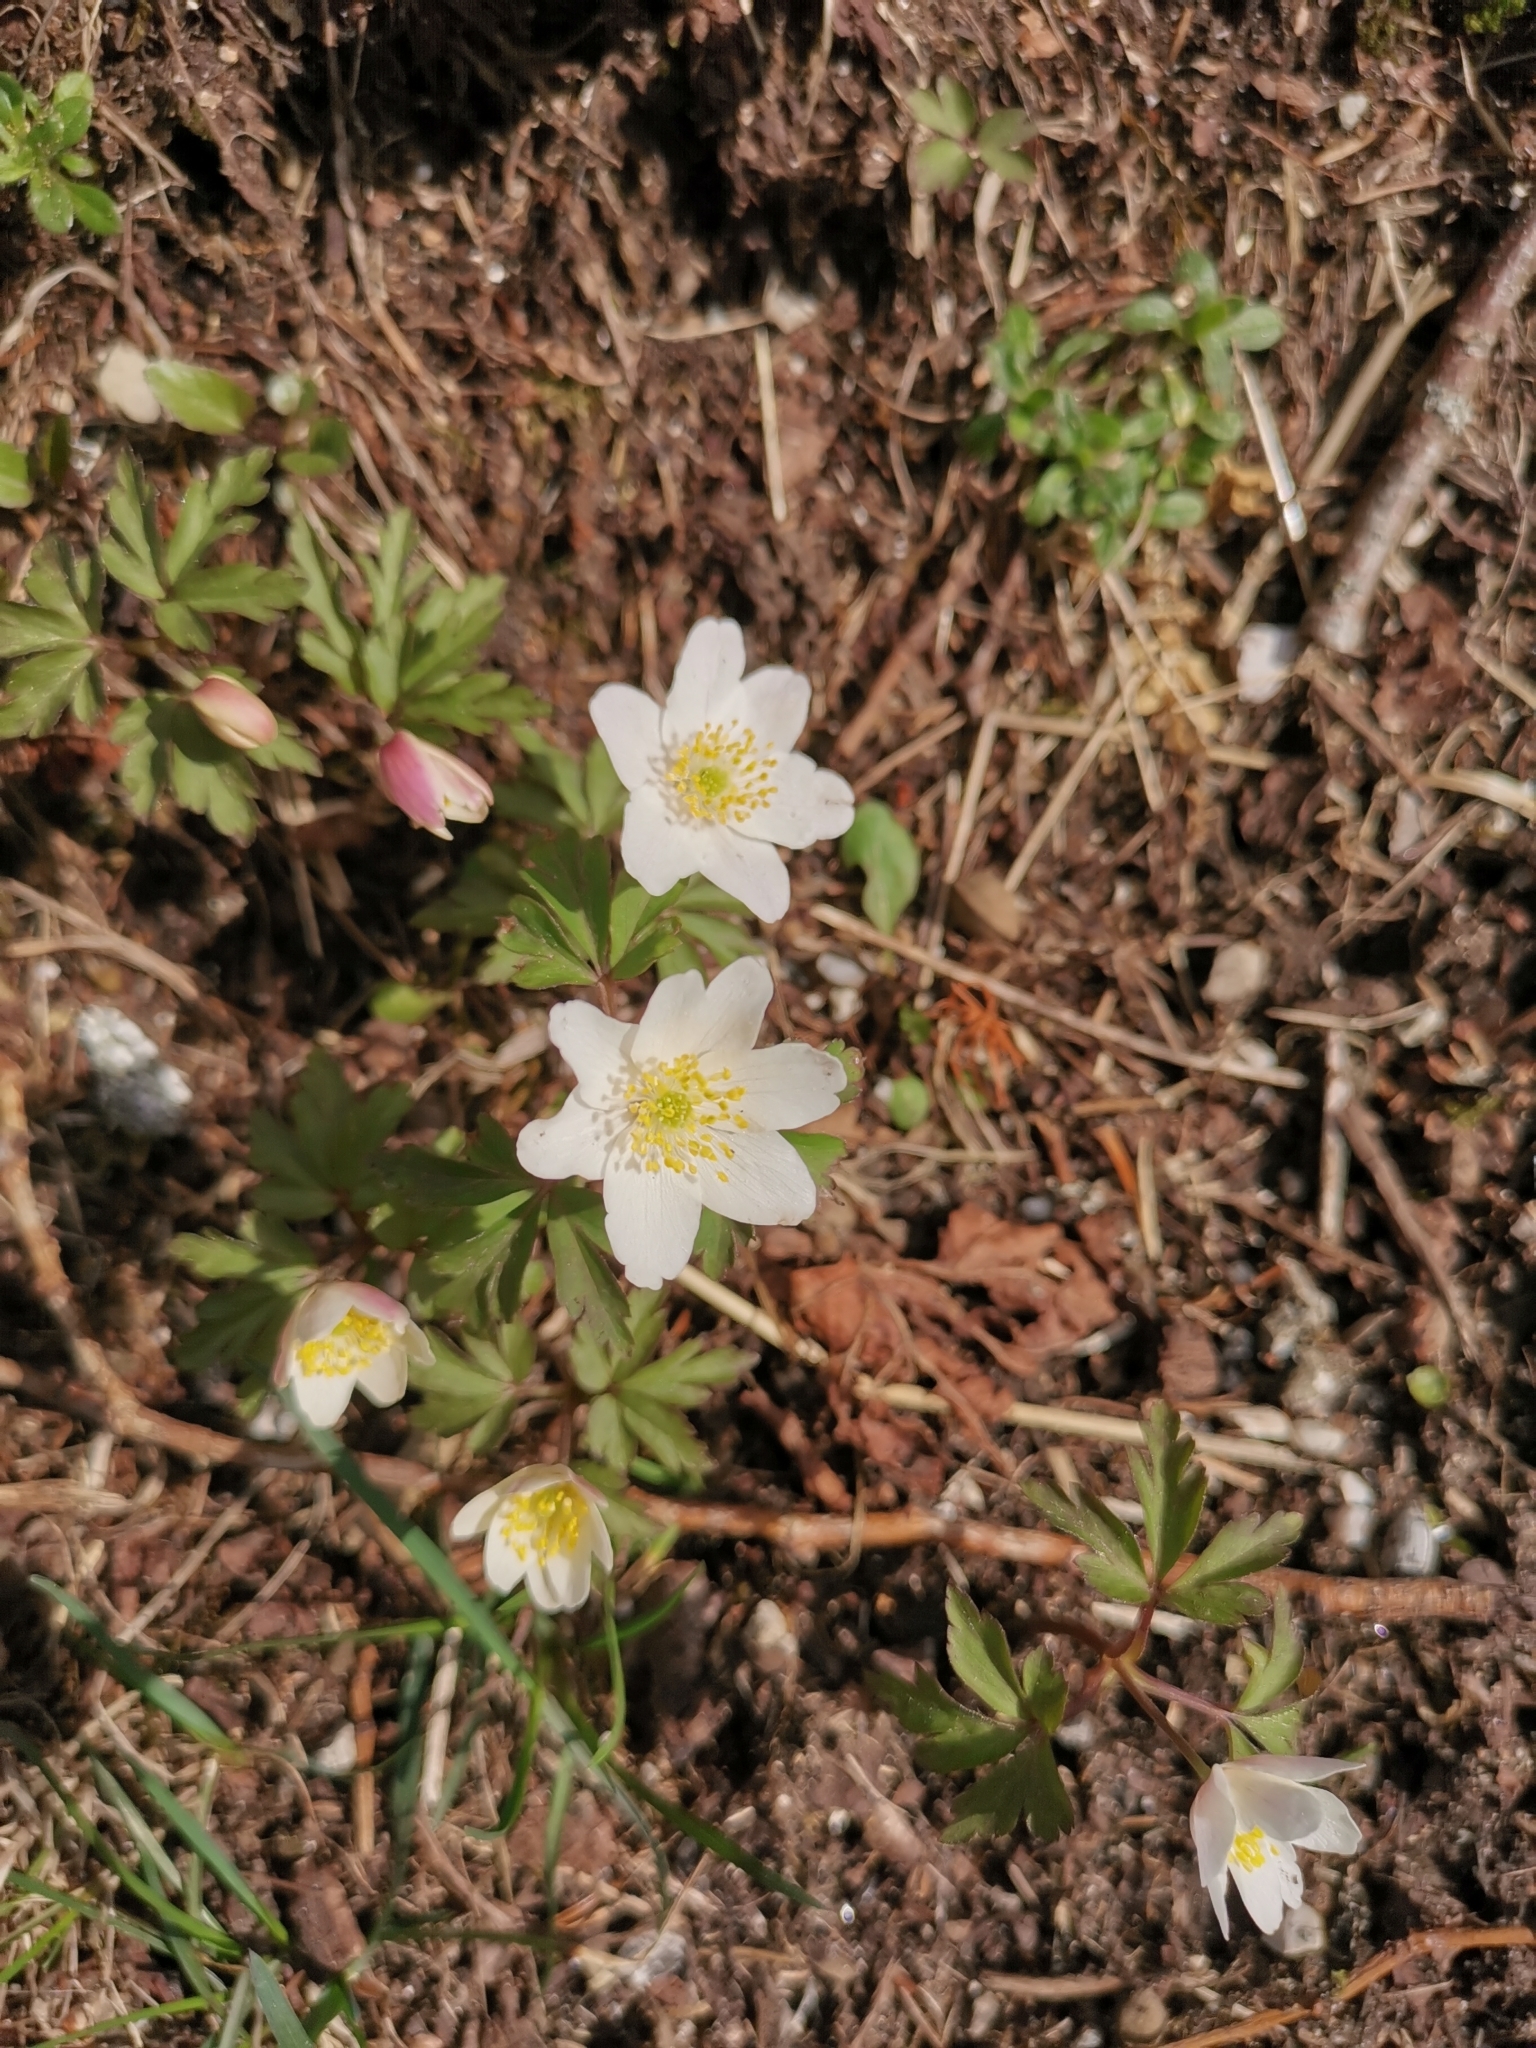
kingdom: Plantae
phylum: Tracheophyta
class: Magnoliopsida
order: Ranunculales
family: Ranunculaceae
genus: Anemone
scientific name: Anemone nemorosa
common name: Wood anemone
